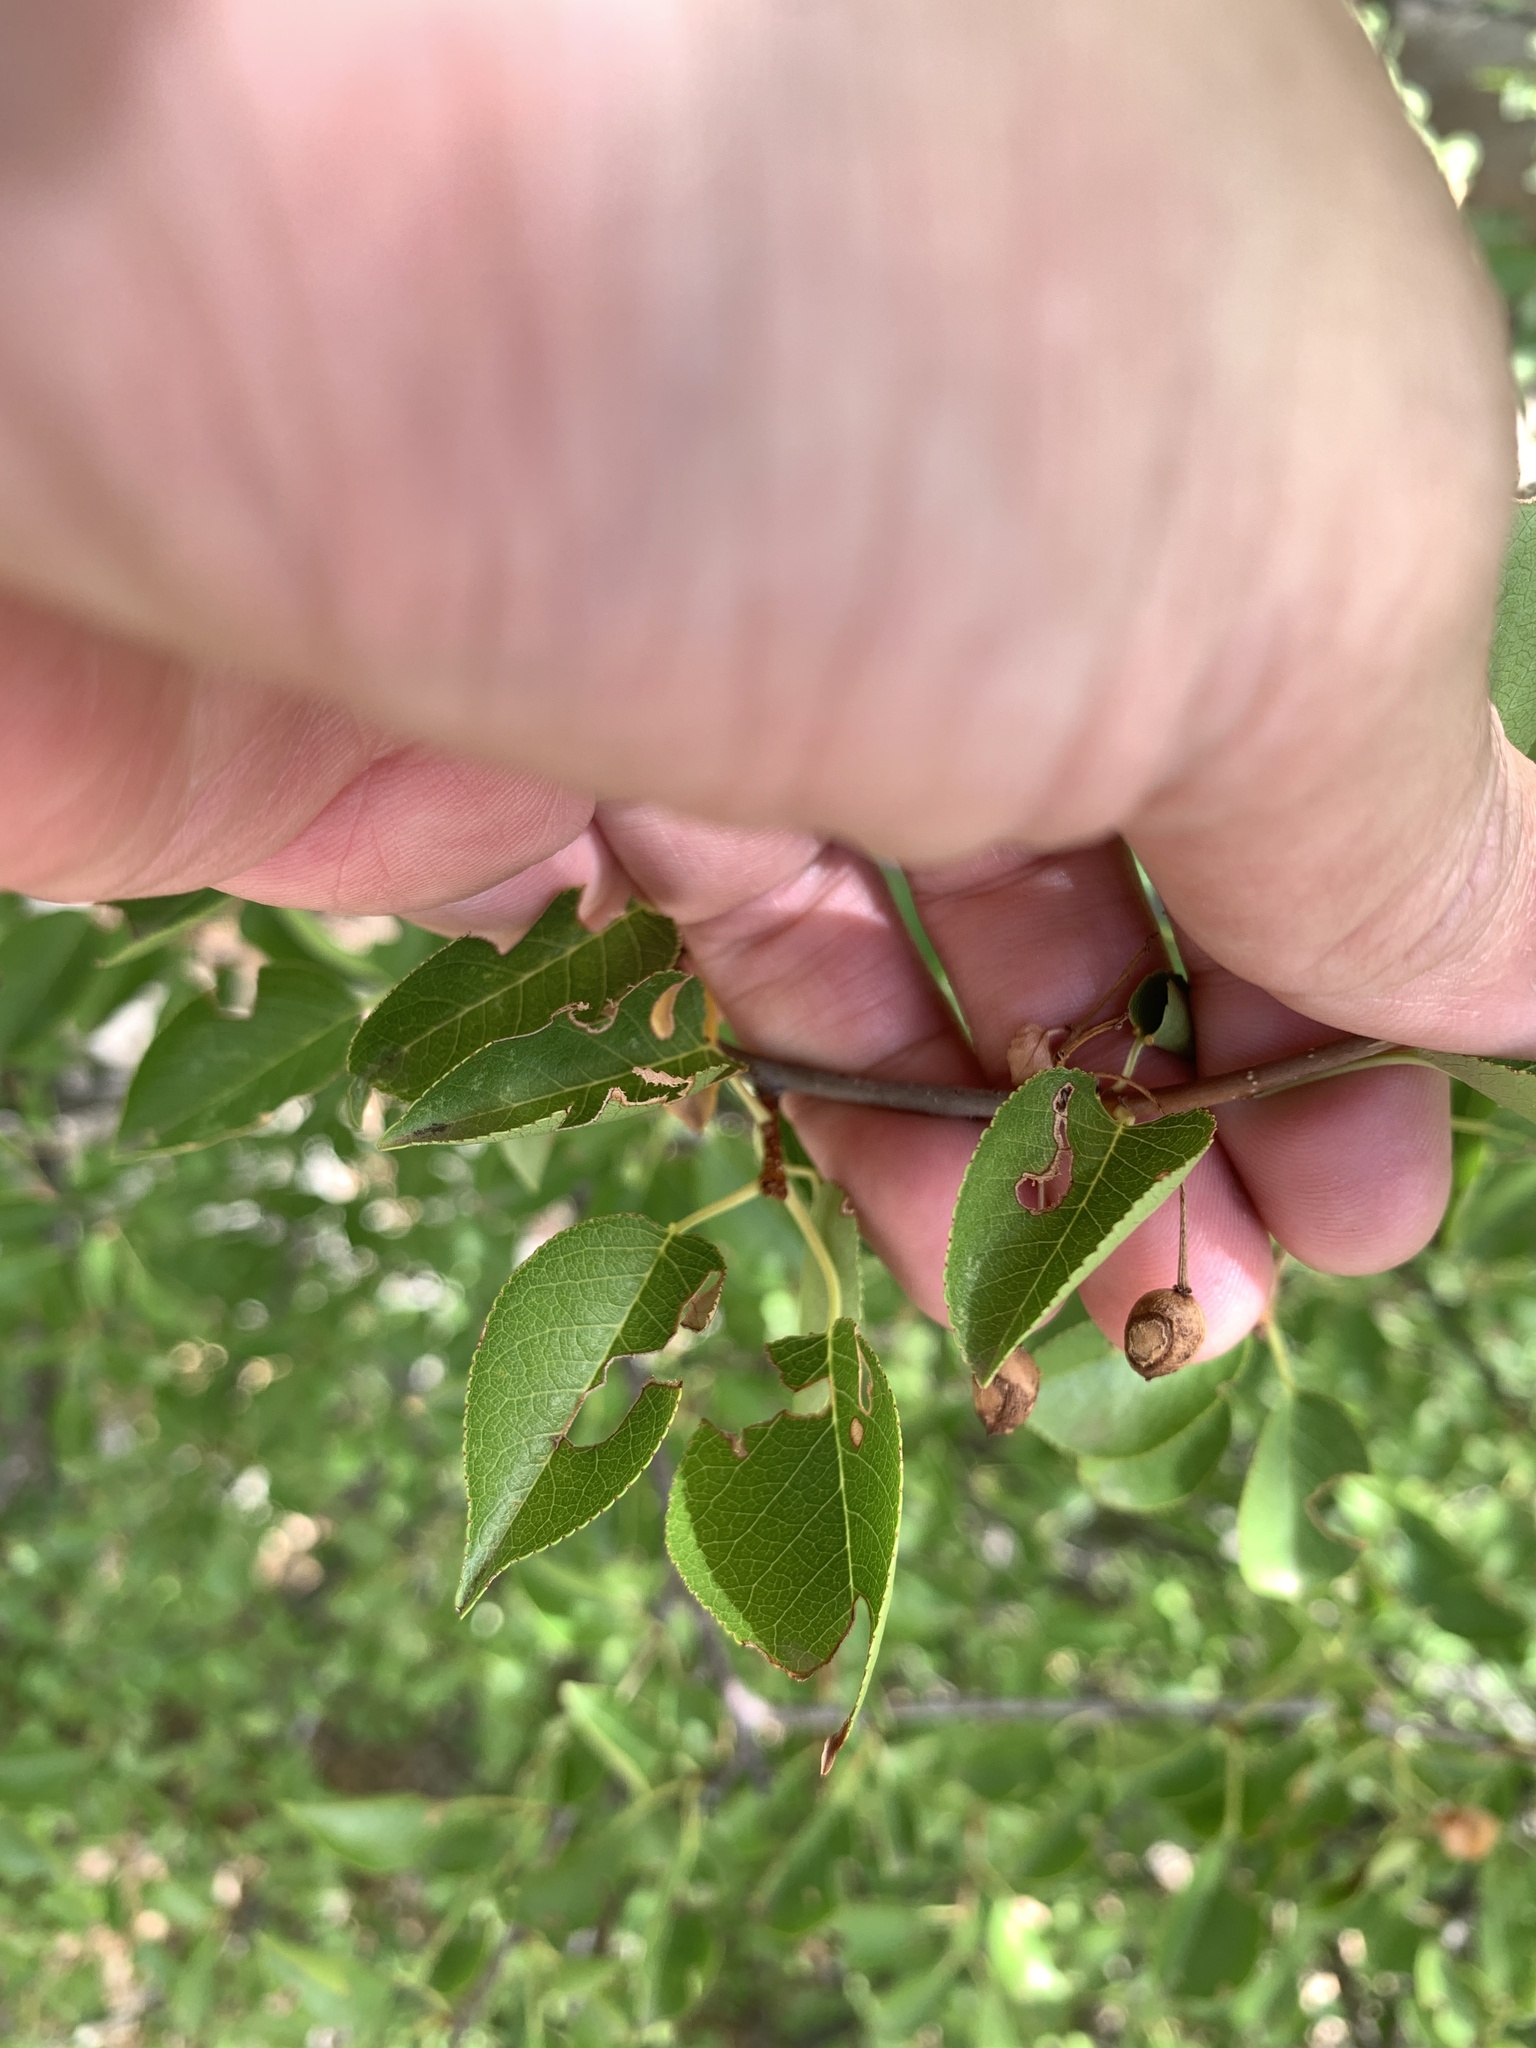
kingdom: Plantae
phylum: Tracheophyta
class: Magnoliopsida
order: Rosales
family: Rosaceae
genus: Prunus
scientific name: Prunus mahaleb
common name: Mahaleb cherry
